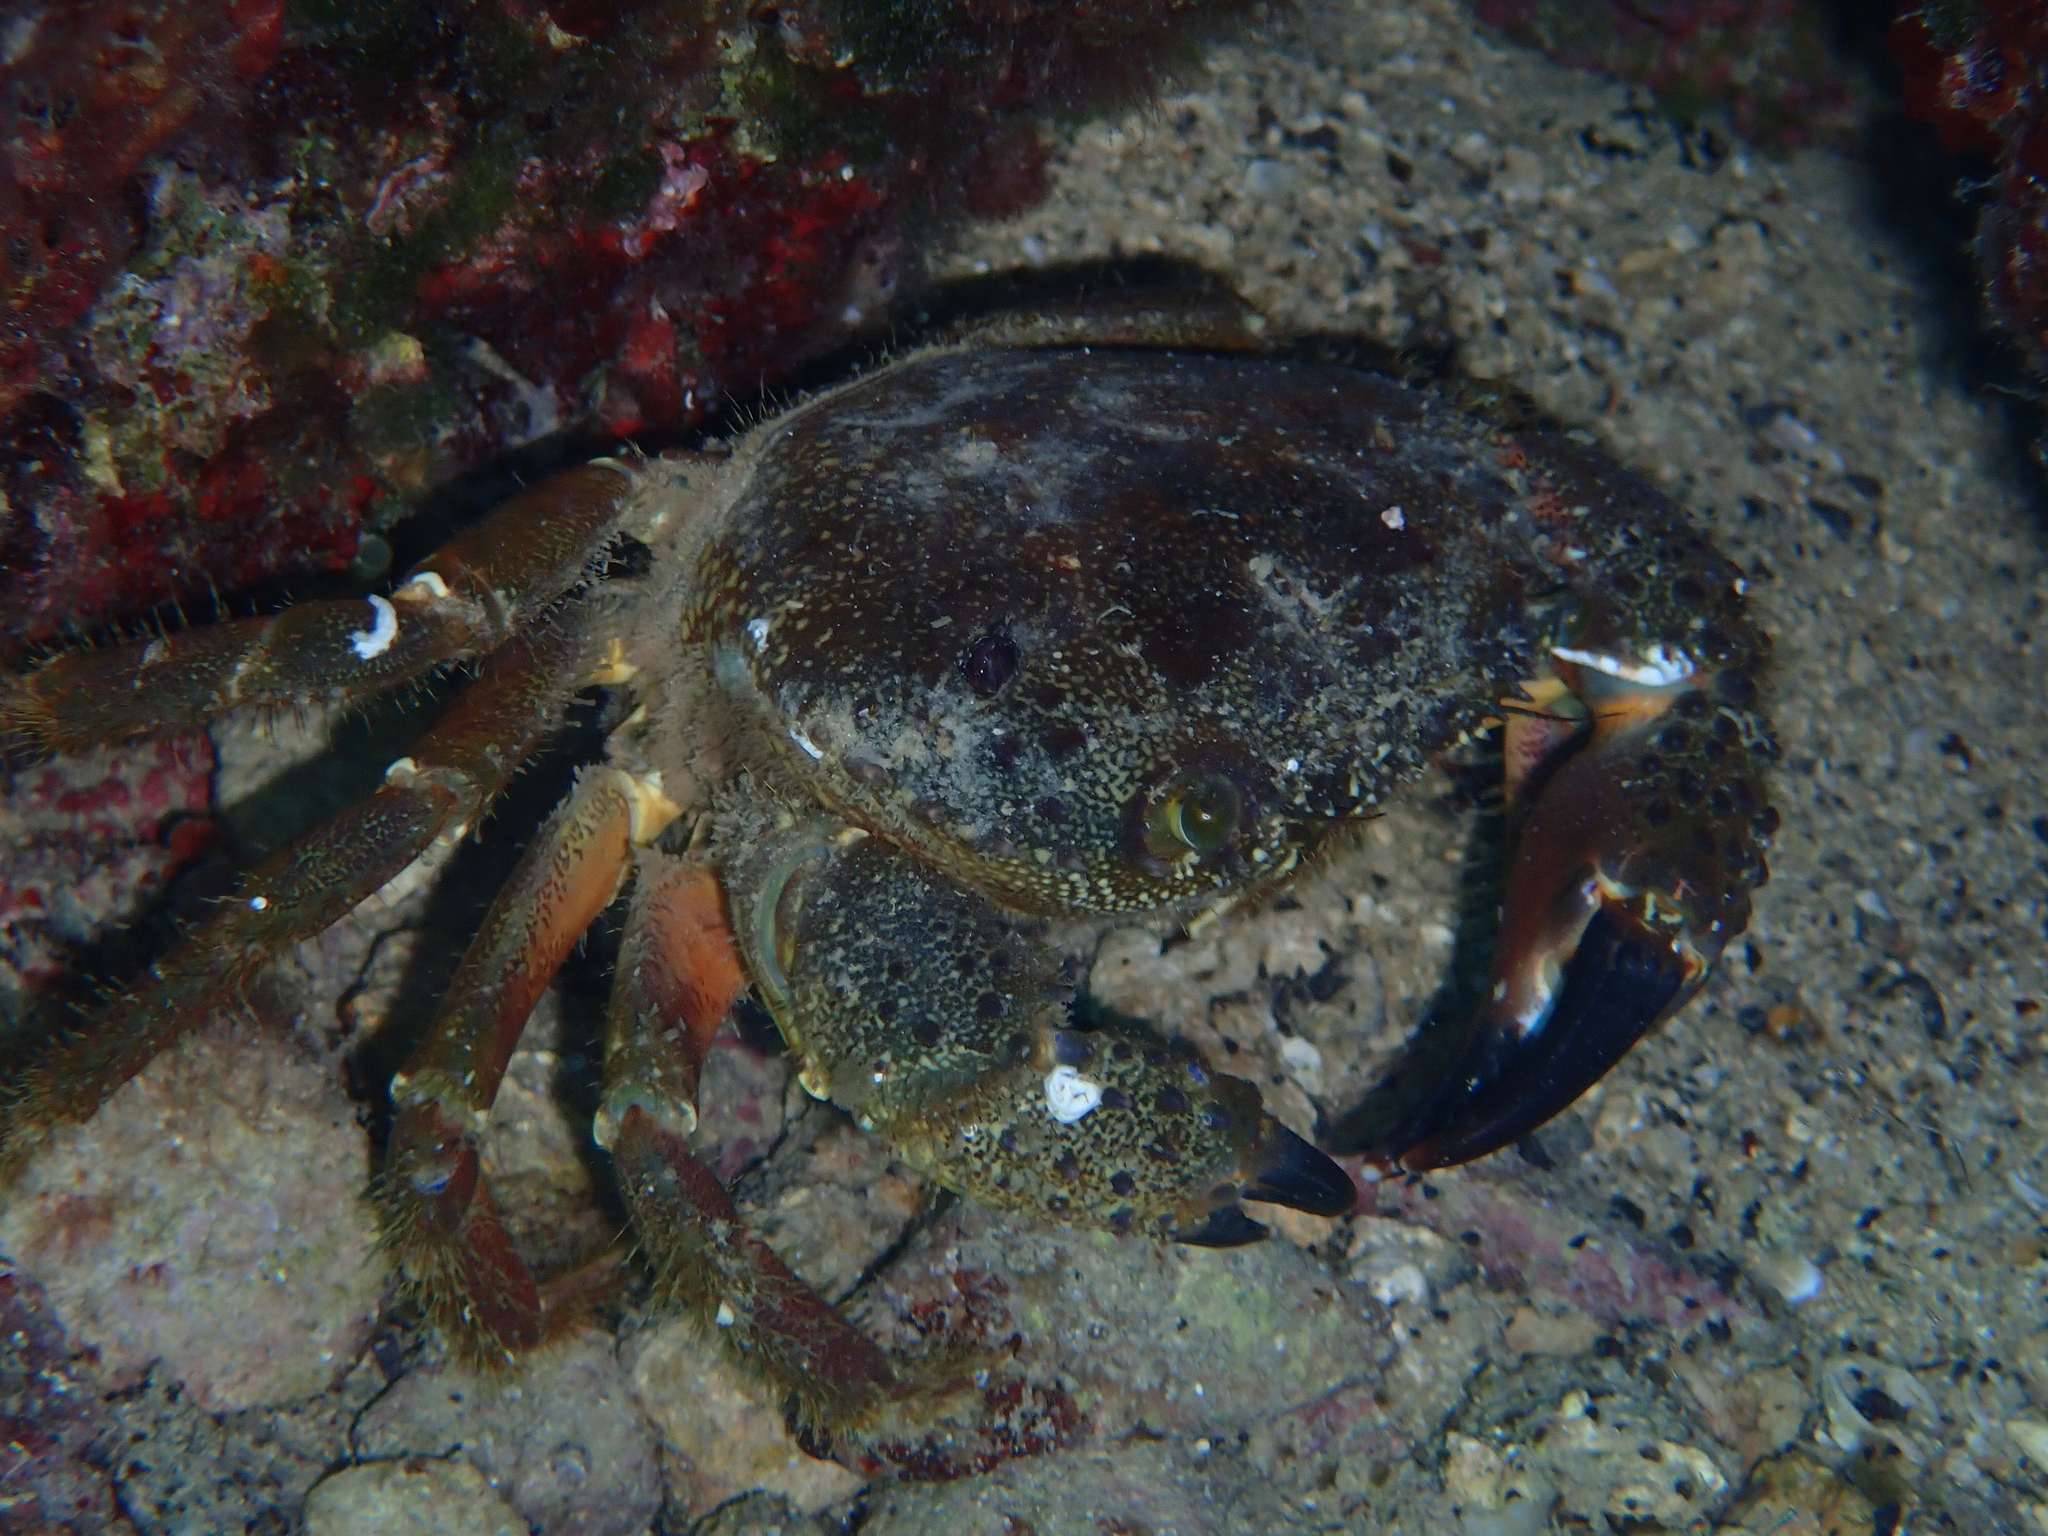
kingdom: Animalia
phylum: Arthropoda
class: Malacostraca
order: Decapoda
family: Eriphiidae
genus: Eriphia
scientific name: Eriphia verrucosa
